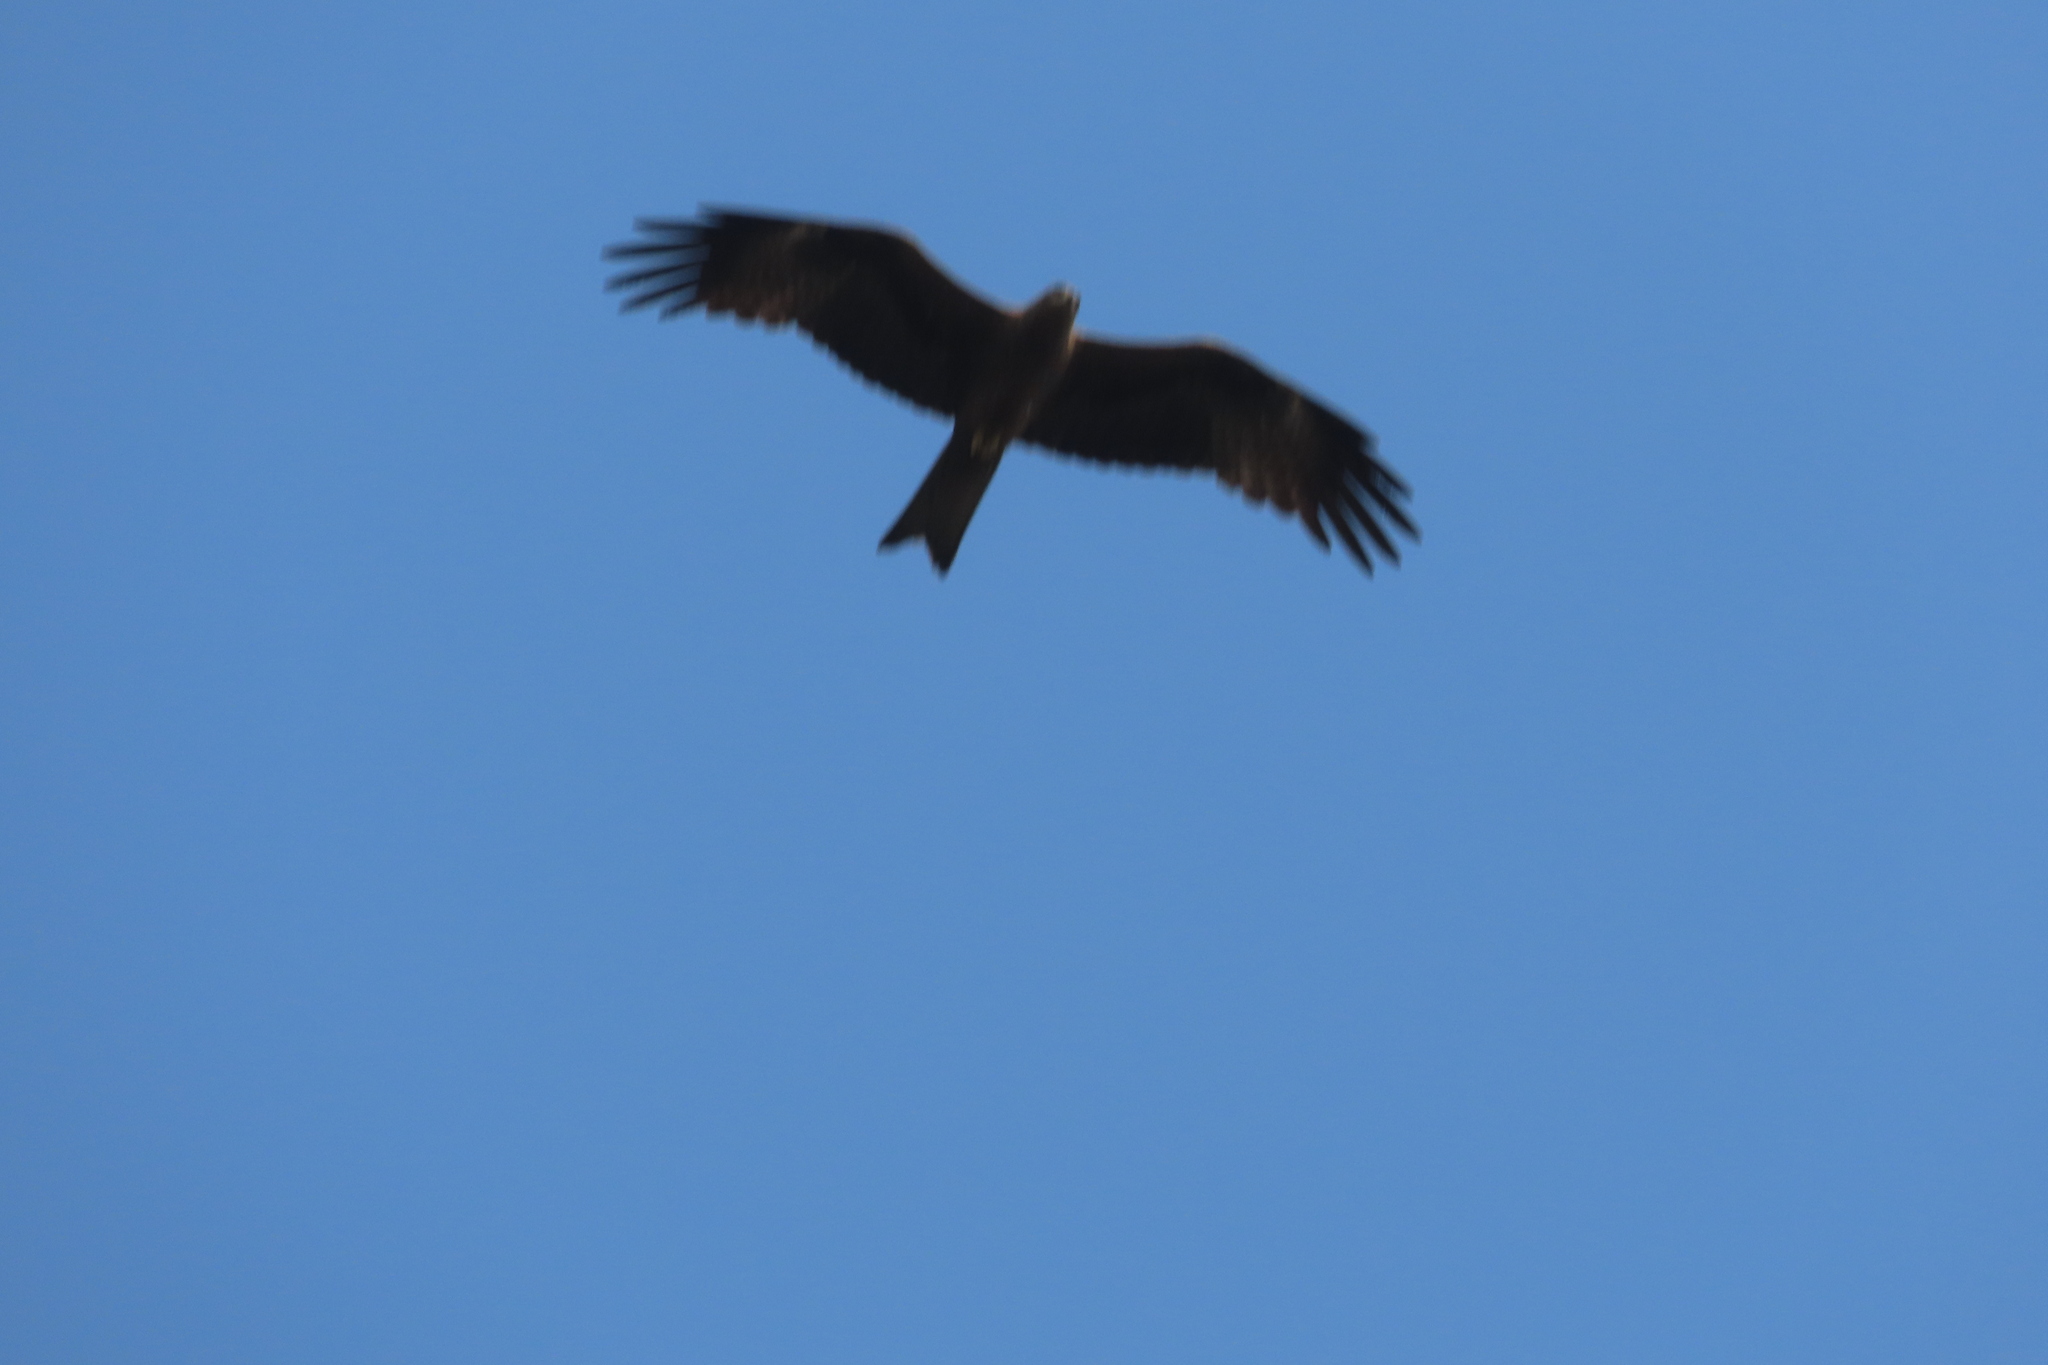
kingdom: Animalia
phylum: Chordata
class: Aves
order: Accipitriformes
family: Accipitridae
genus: Milvus
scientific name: Milvus migrans
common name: Black kite
